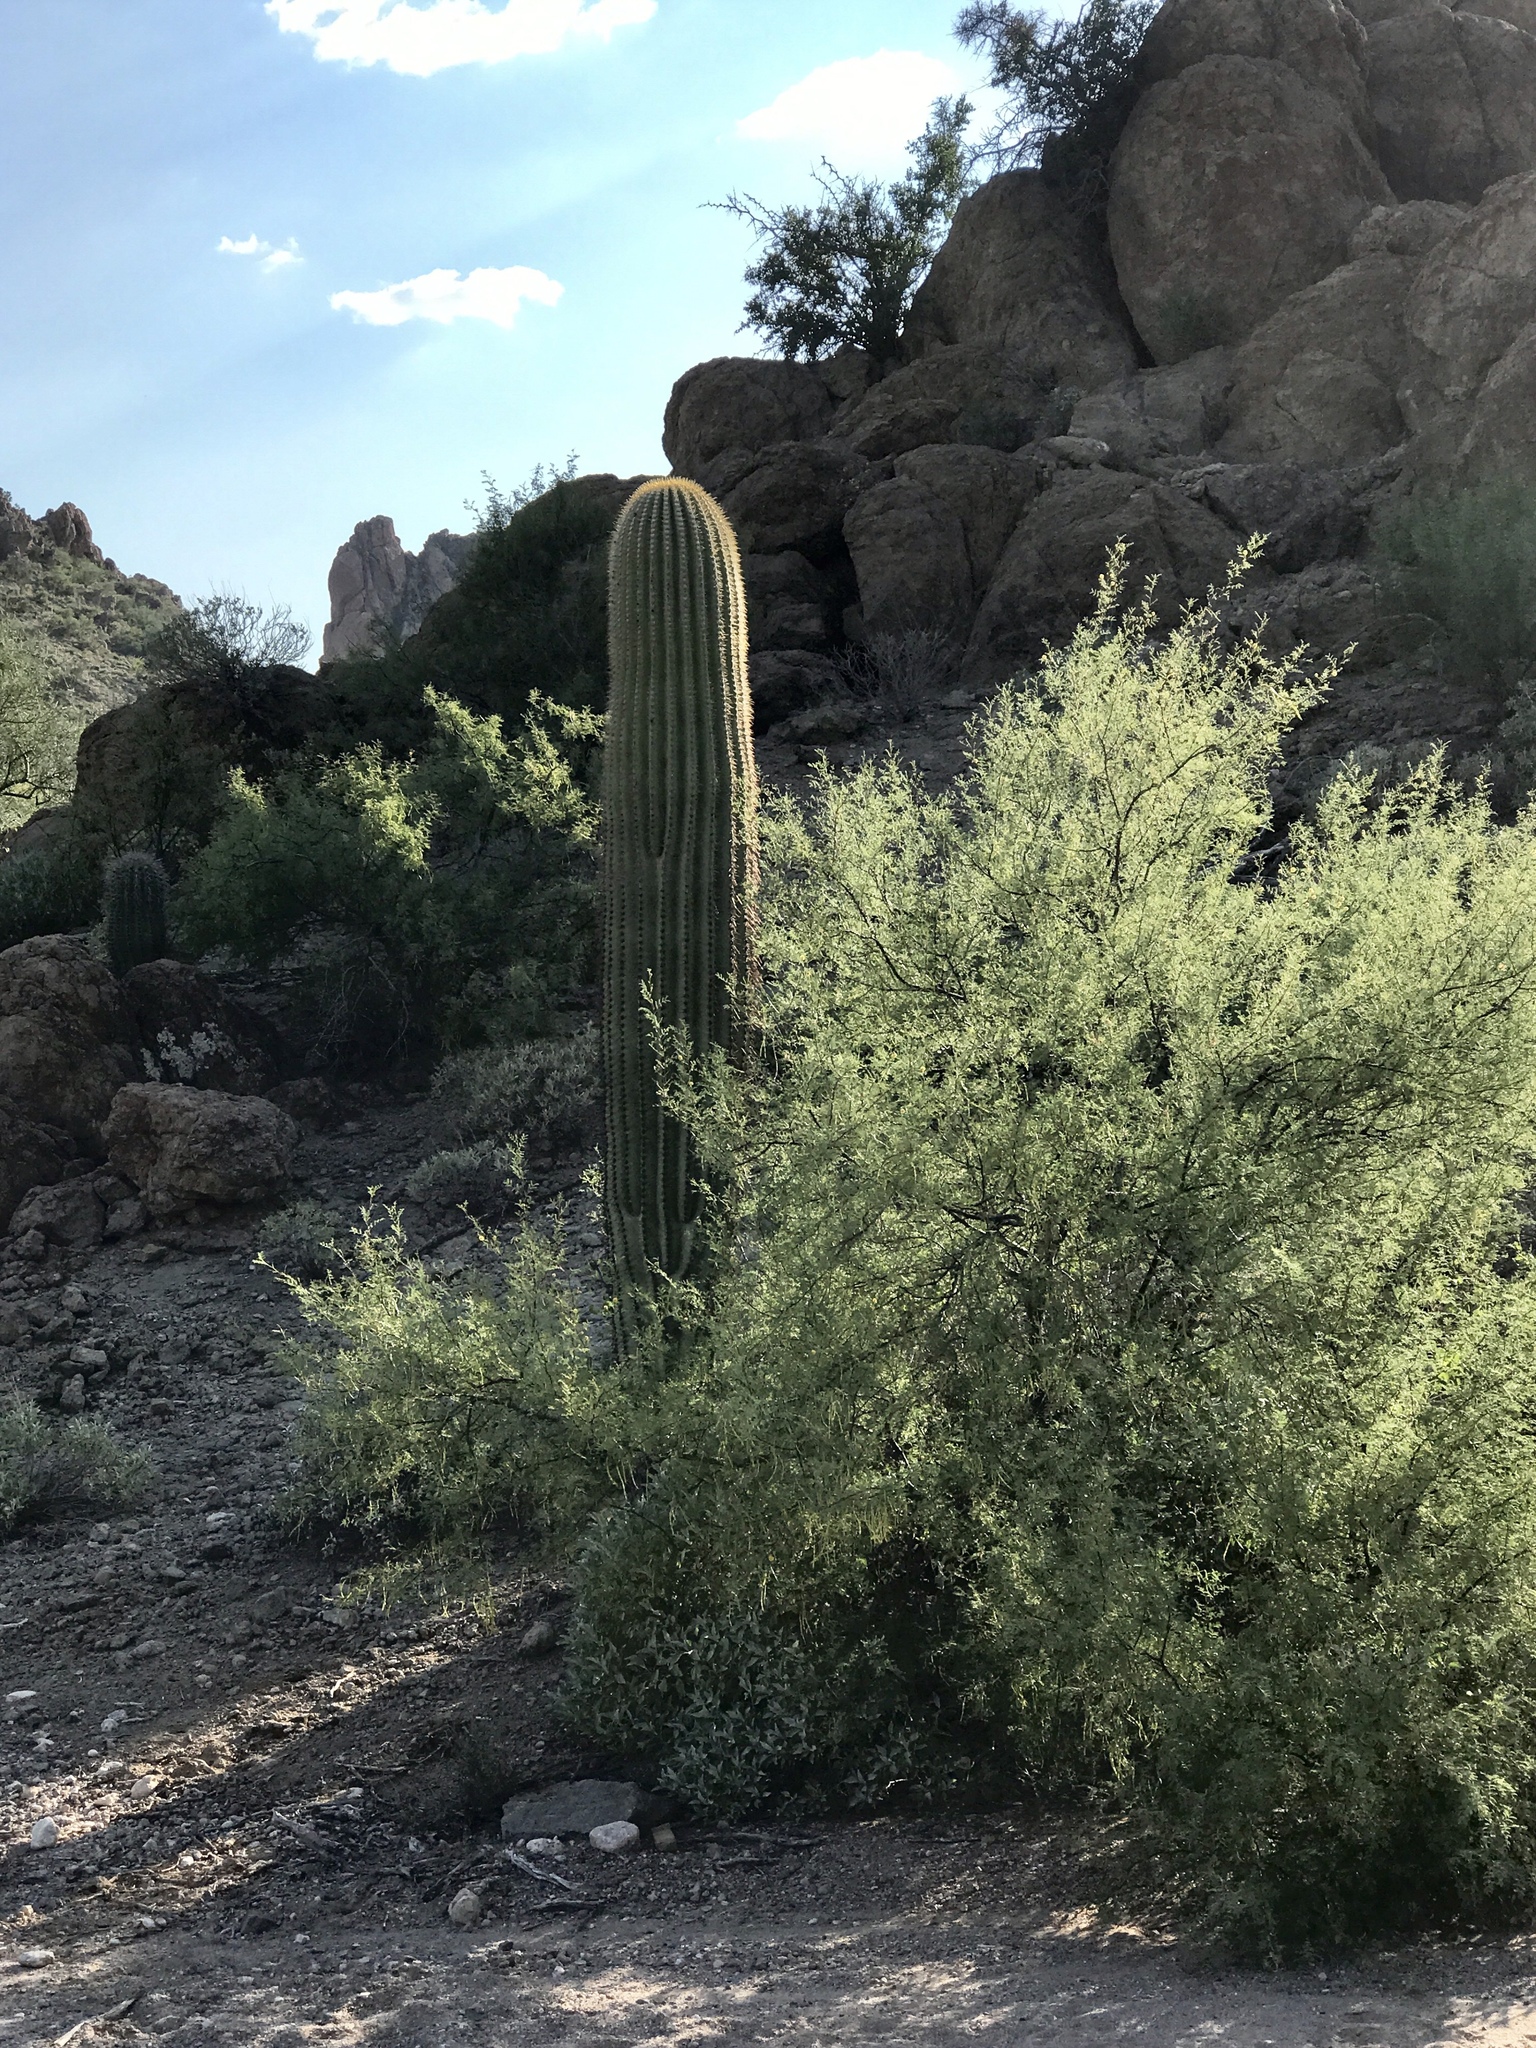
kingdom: Plantae
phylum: Tracheophyta
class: Magnoliopsida
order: Caryophyllales
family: Cactaceae
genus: Carnegiea
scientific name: Carnegiea gigantea
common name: Saguaro
